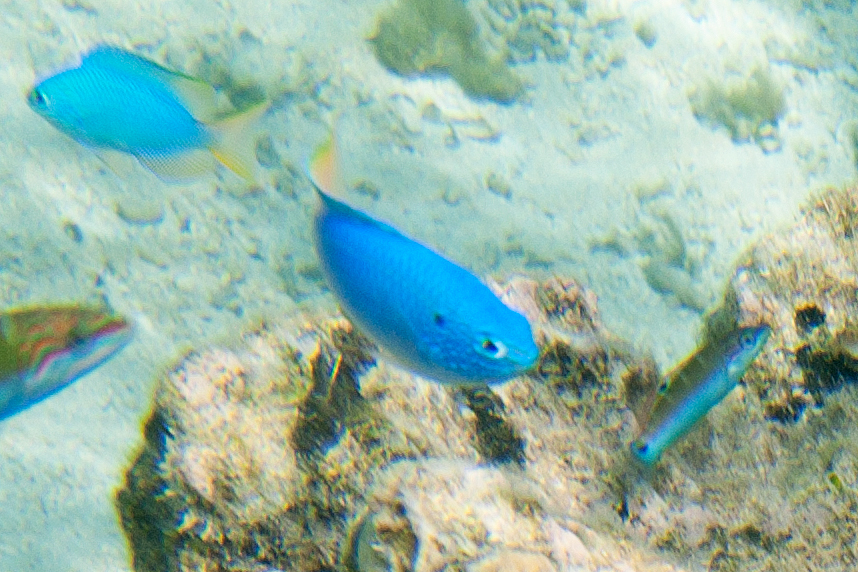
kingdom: Animalia
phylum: Chordata
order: Perciformes
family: Labridae
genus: Thalassoma
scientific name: Thalassoma lunare
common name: Blue wrasse
